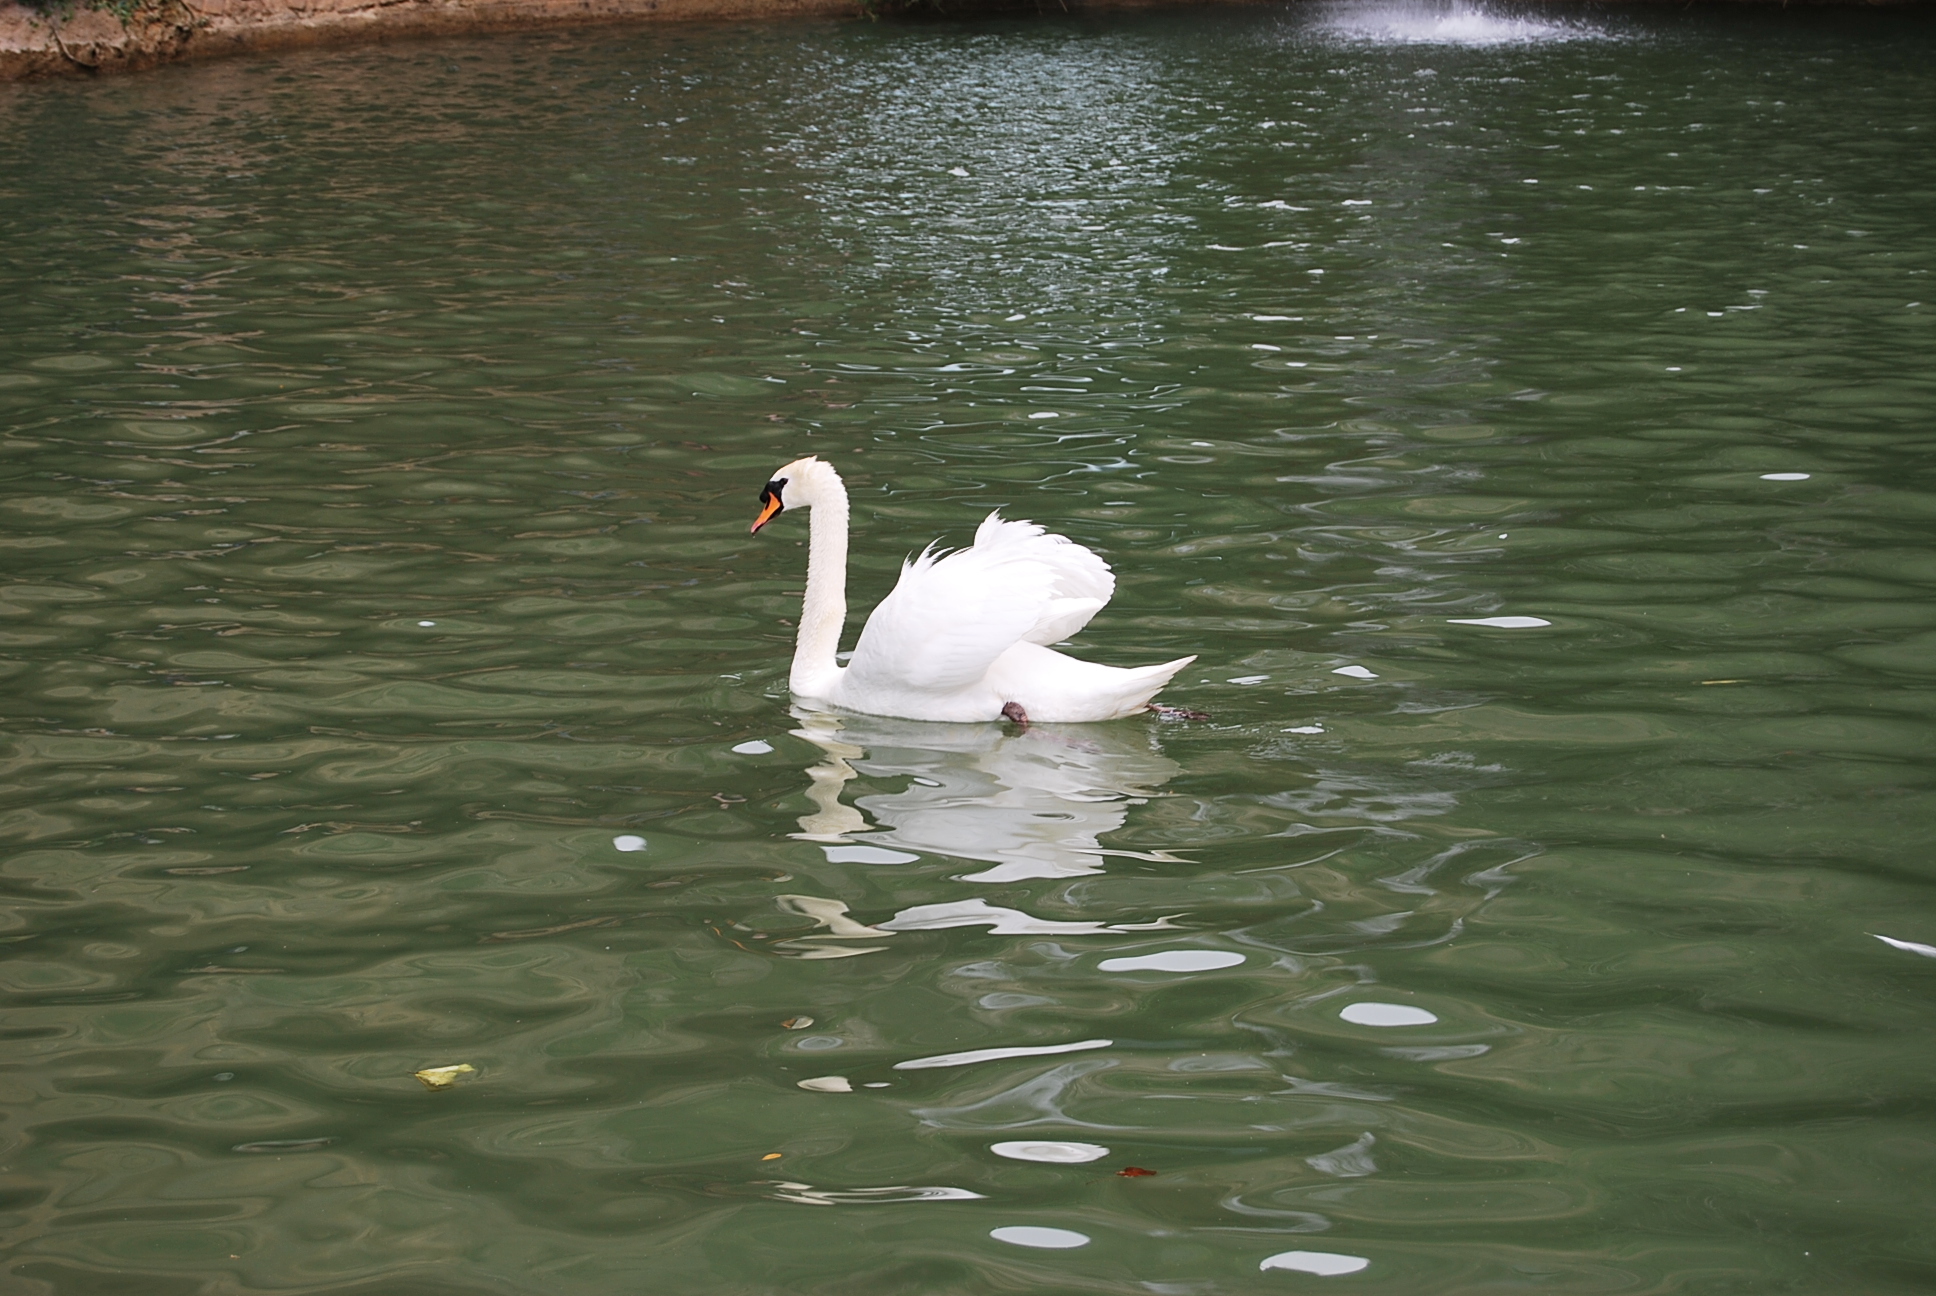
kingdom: Animalia
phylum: Chordata
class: Aves
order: Anseriformes
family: Anatidae
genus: Cygnus
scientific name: Cygnus olor
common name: Mute swan
